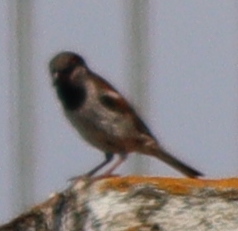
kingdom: Animalia
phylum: Chordata
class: Aves
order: Passeriformes
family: Passeridae
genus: Passer
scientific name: Passer domesticus
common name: House sparrow
